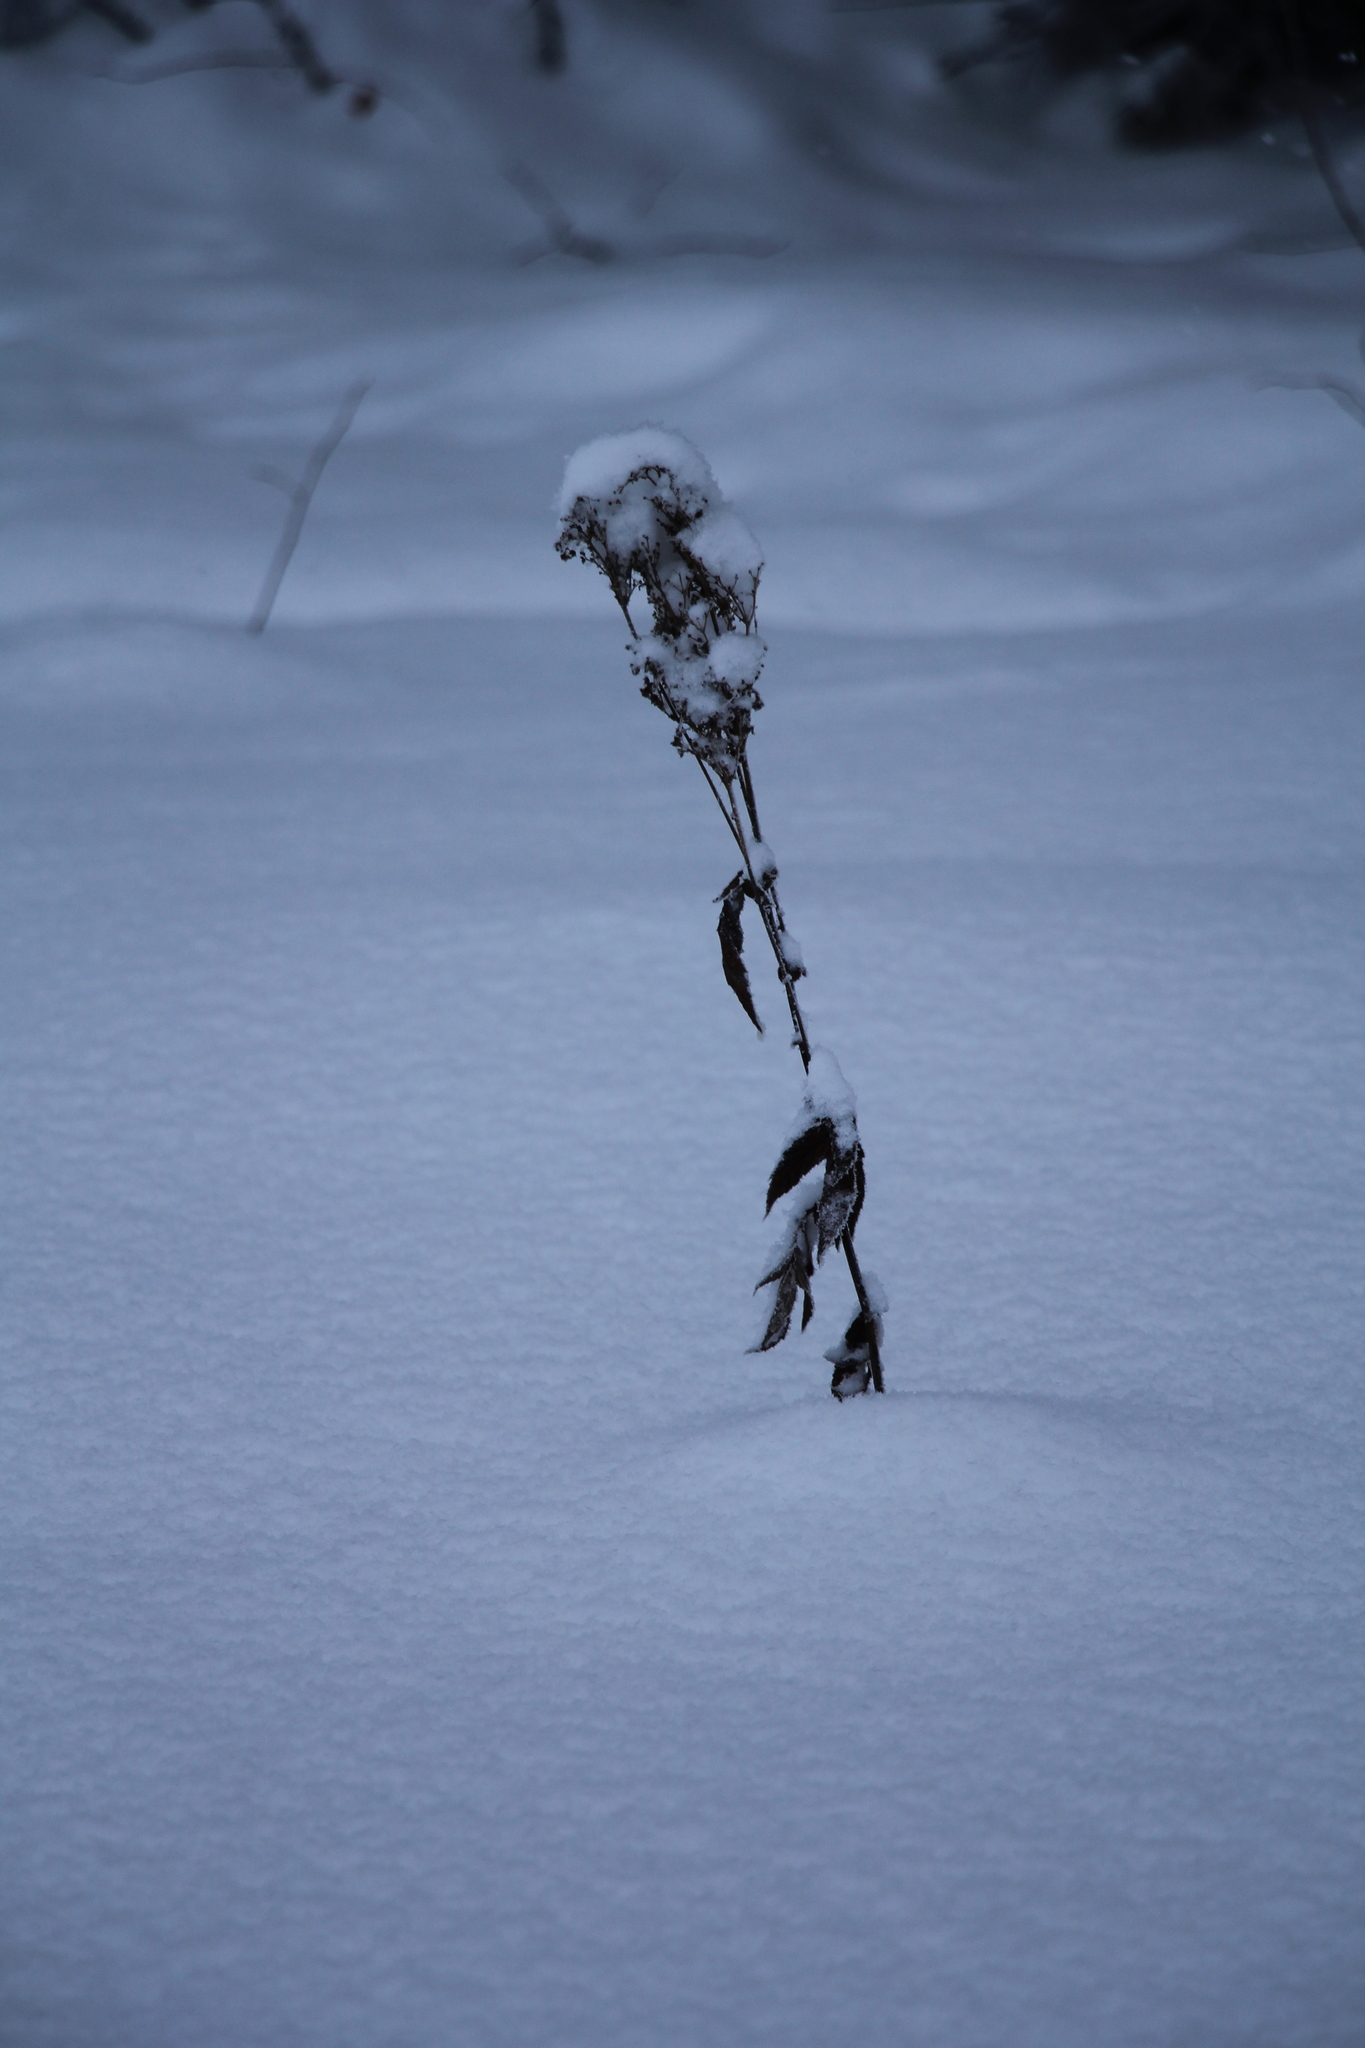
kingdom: Plantae
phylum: Tracheophyta
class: Magnoliopsida
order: Rosales
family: Rosaceae
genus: Filipendula
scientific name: Filipendula ulmaria
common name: Meadowsweet
